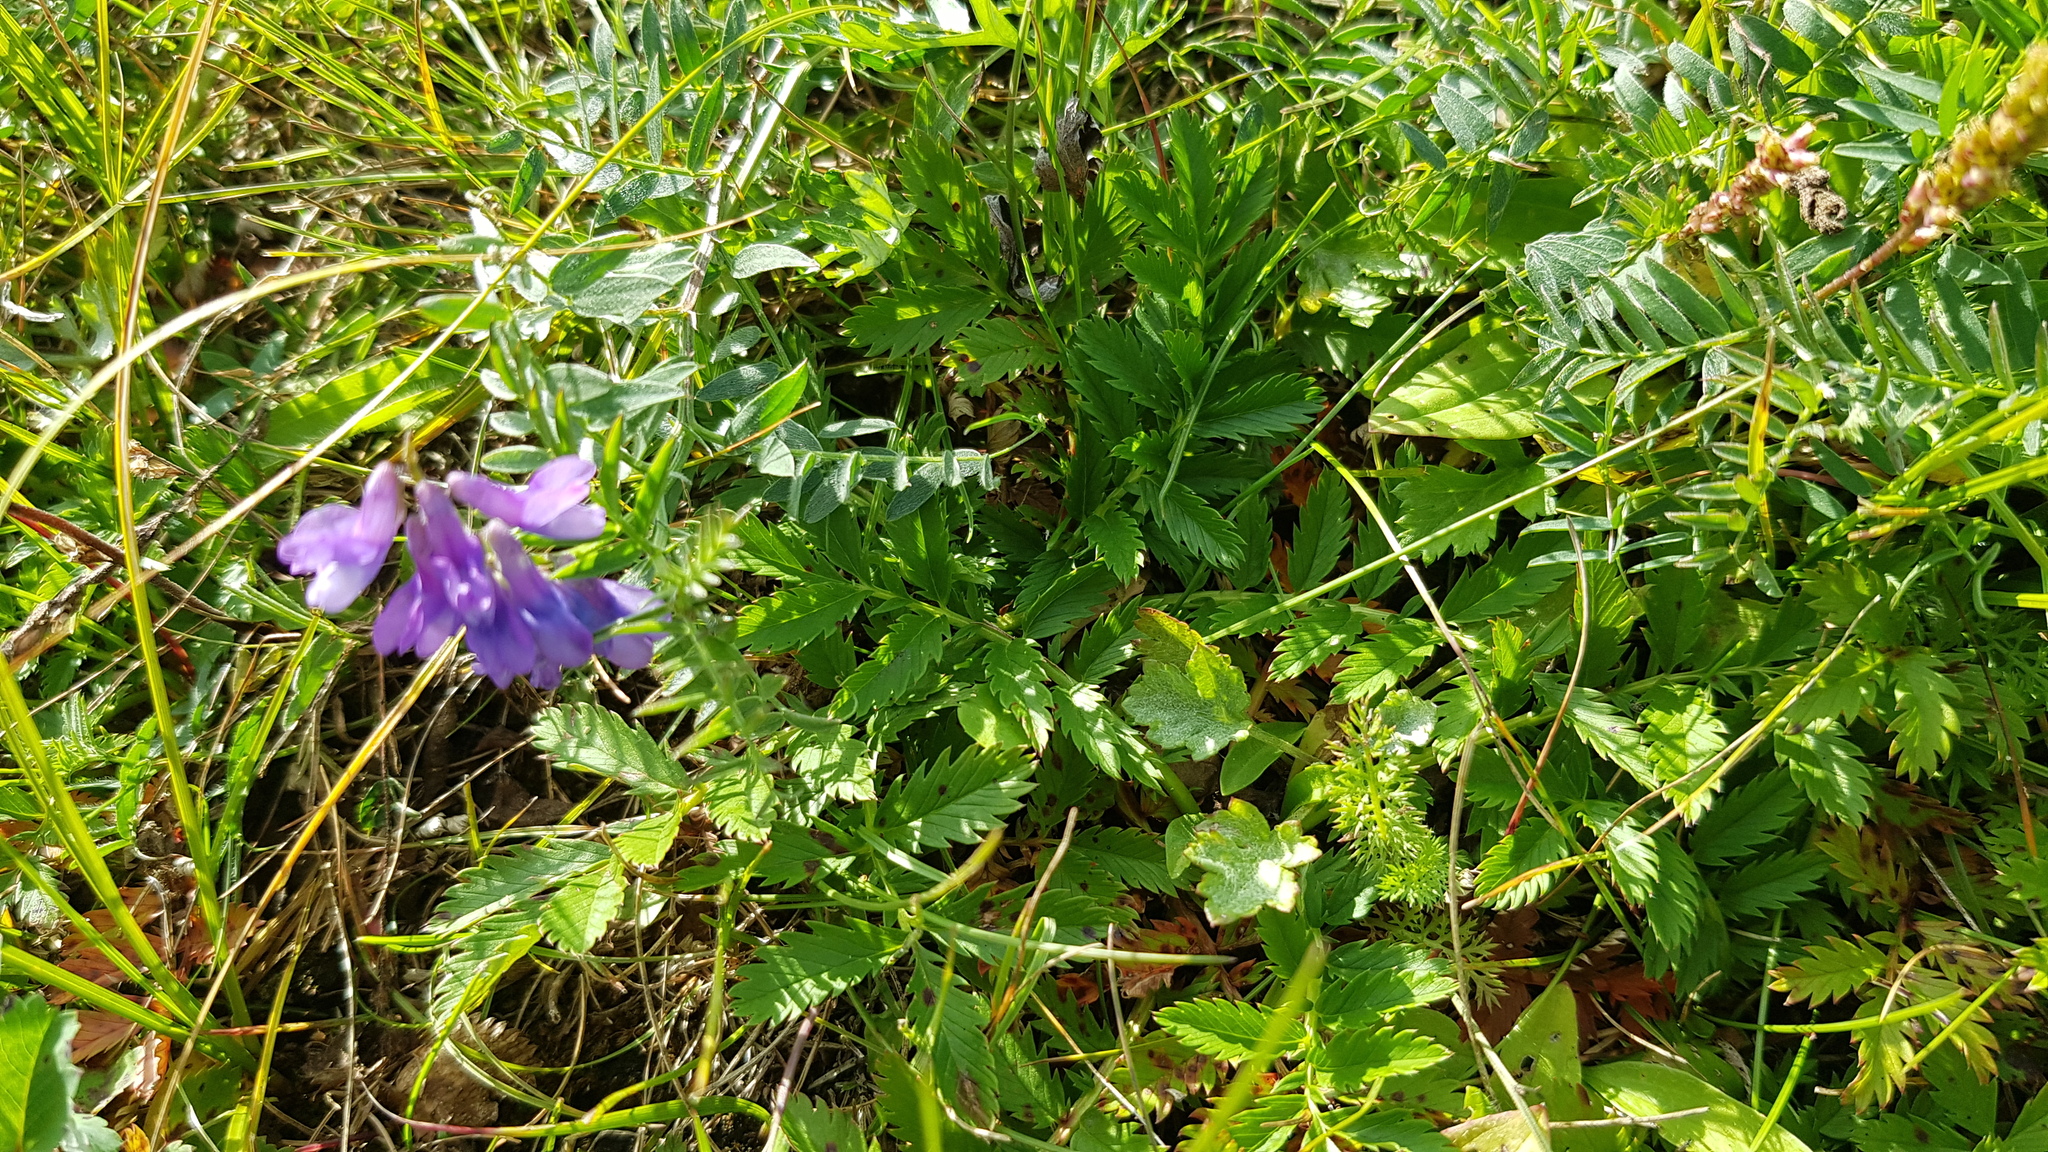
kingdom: Plantae
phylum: Tracheophyta
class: Magnoliopsida
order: Fabales
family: Fabaceae
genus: Vicia
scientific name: Vicia cracca
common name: Bird vetch
